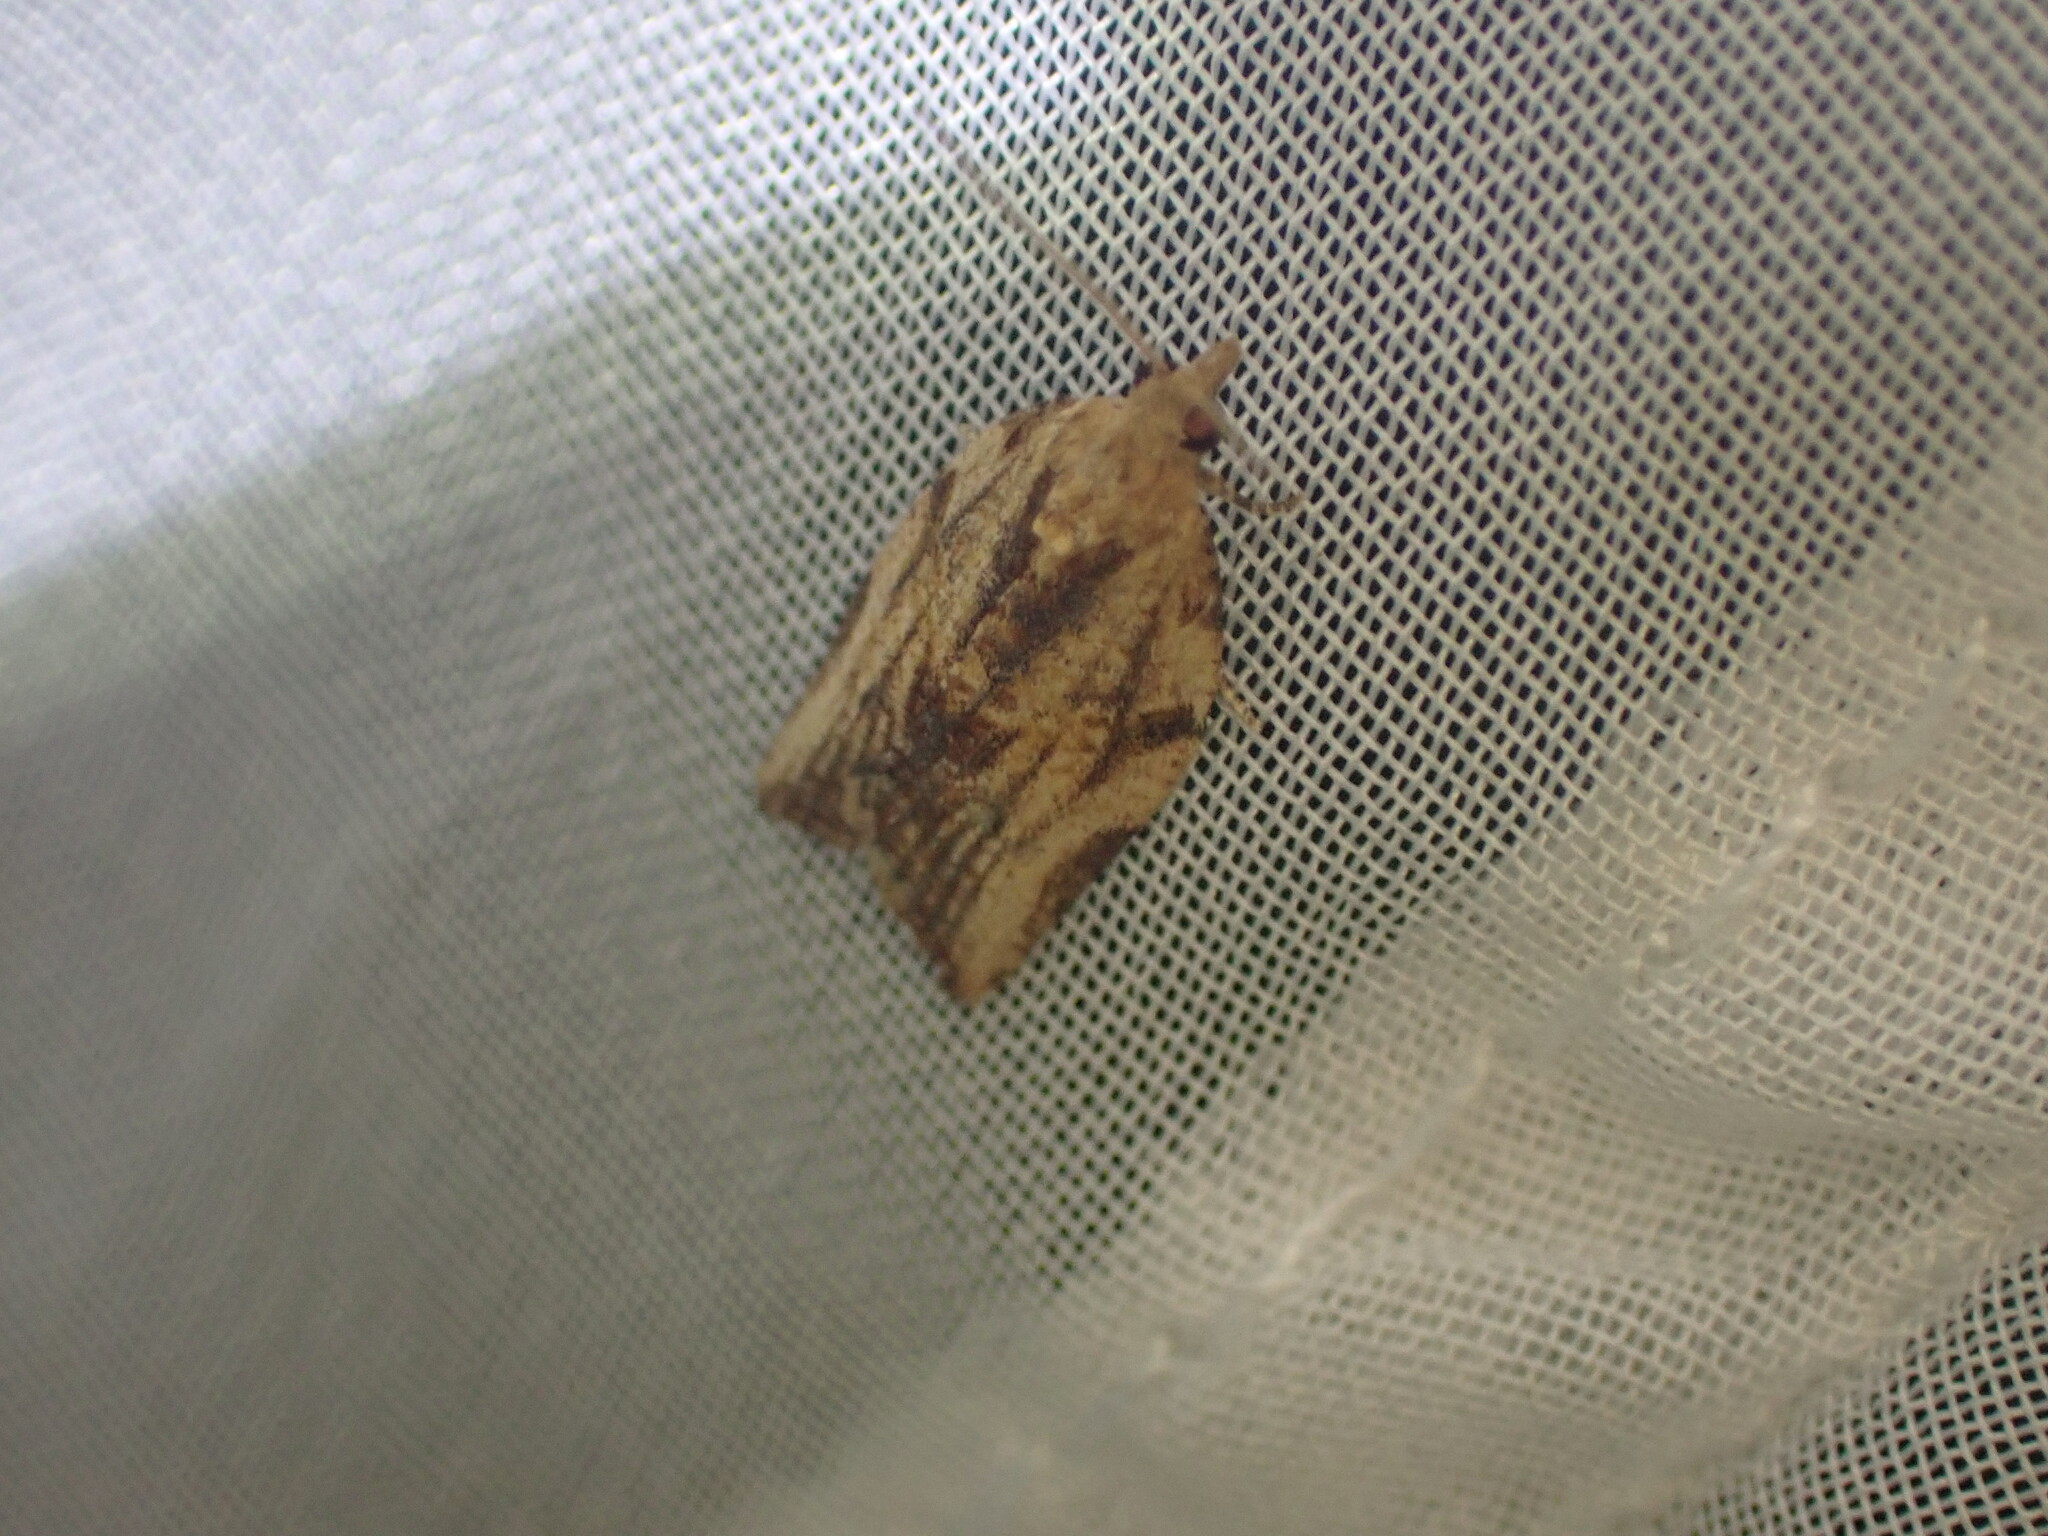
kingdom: Animalia
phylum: Arthropoda
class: Insecta
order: Lepidoptera
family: Tortricidae
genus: Epiphyas
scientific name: Epiphyas postvittana
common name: Light brown apple moth
